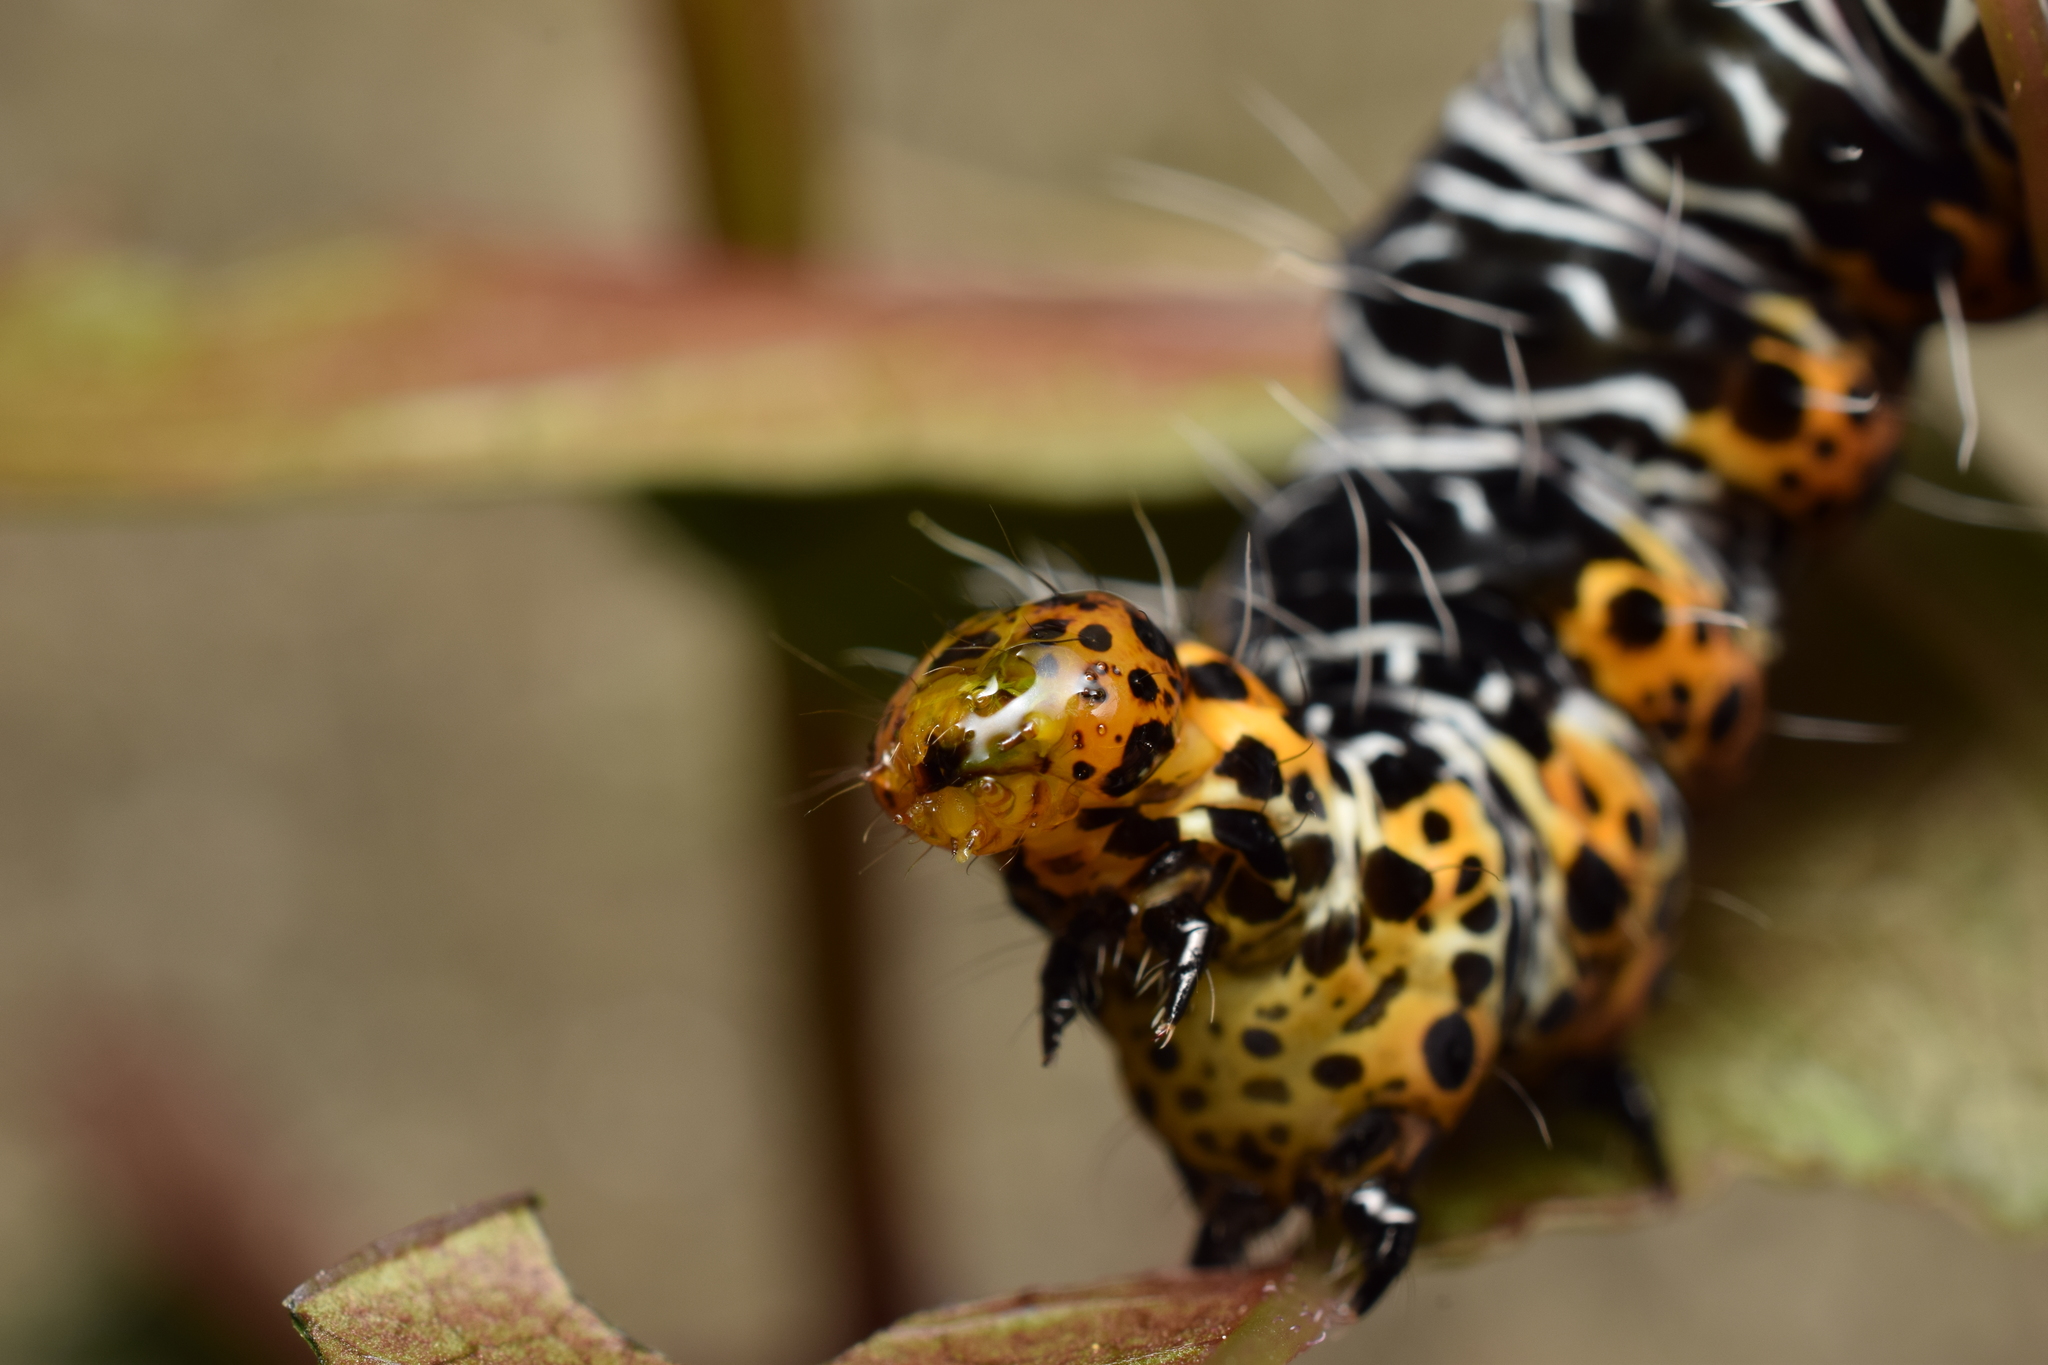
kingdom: Animalia
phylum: Arthropoda
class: Insecta
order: Lepidoptera
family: Noctuidae
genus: Sarbanissa
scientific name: Sarbanissa subflava
